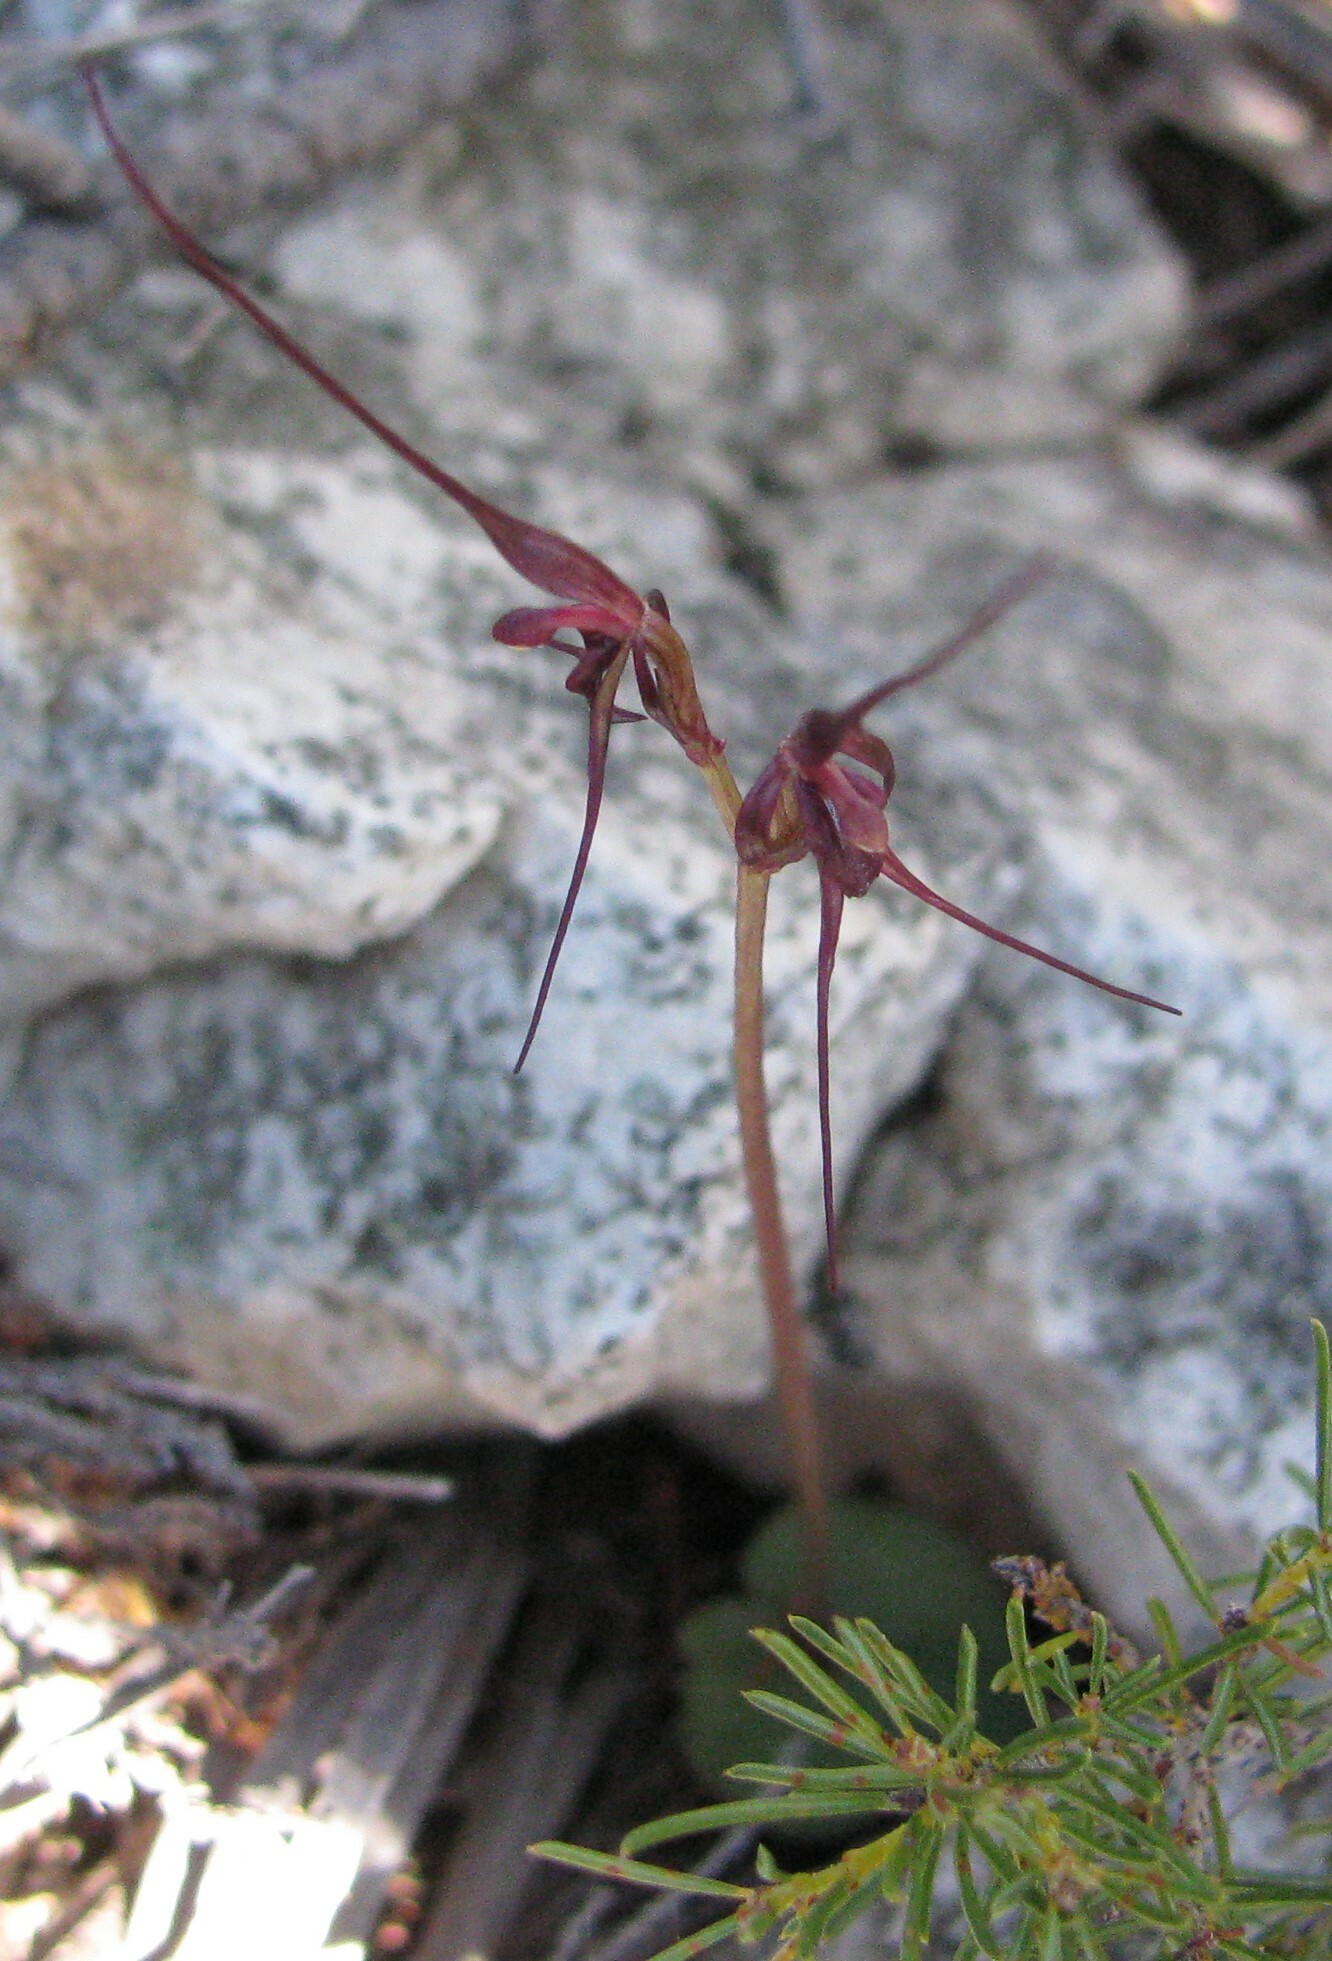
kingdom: Plantae
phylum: Tracheophyta
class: Liliopsida
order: Asparagales
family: Orchidaceae
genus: Acianthus
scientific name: Acianthus caudatus
